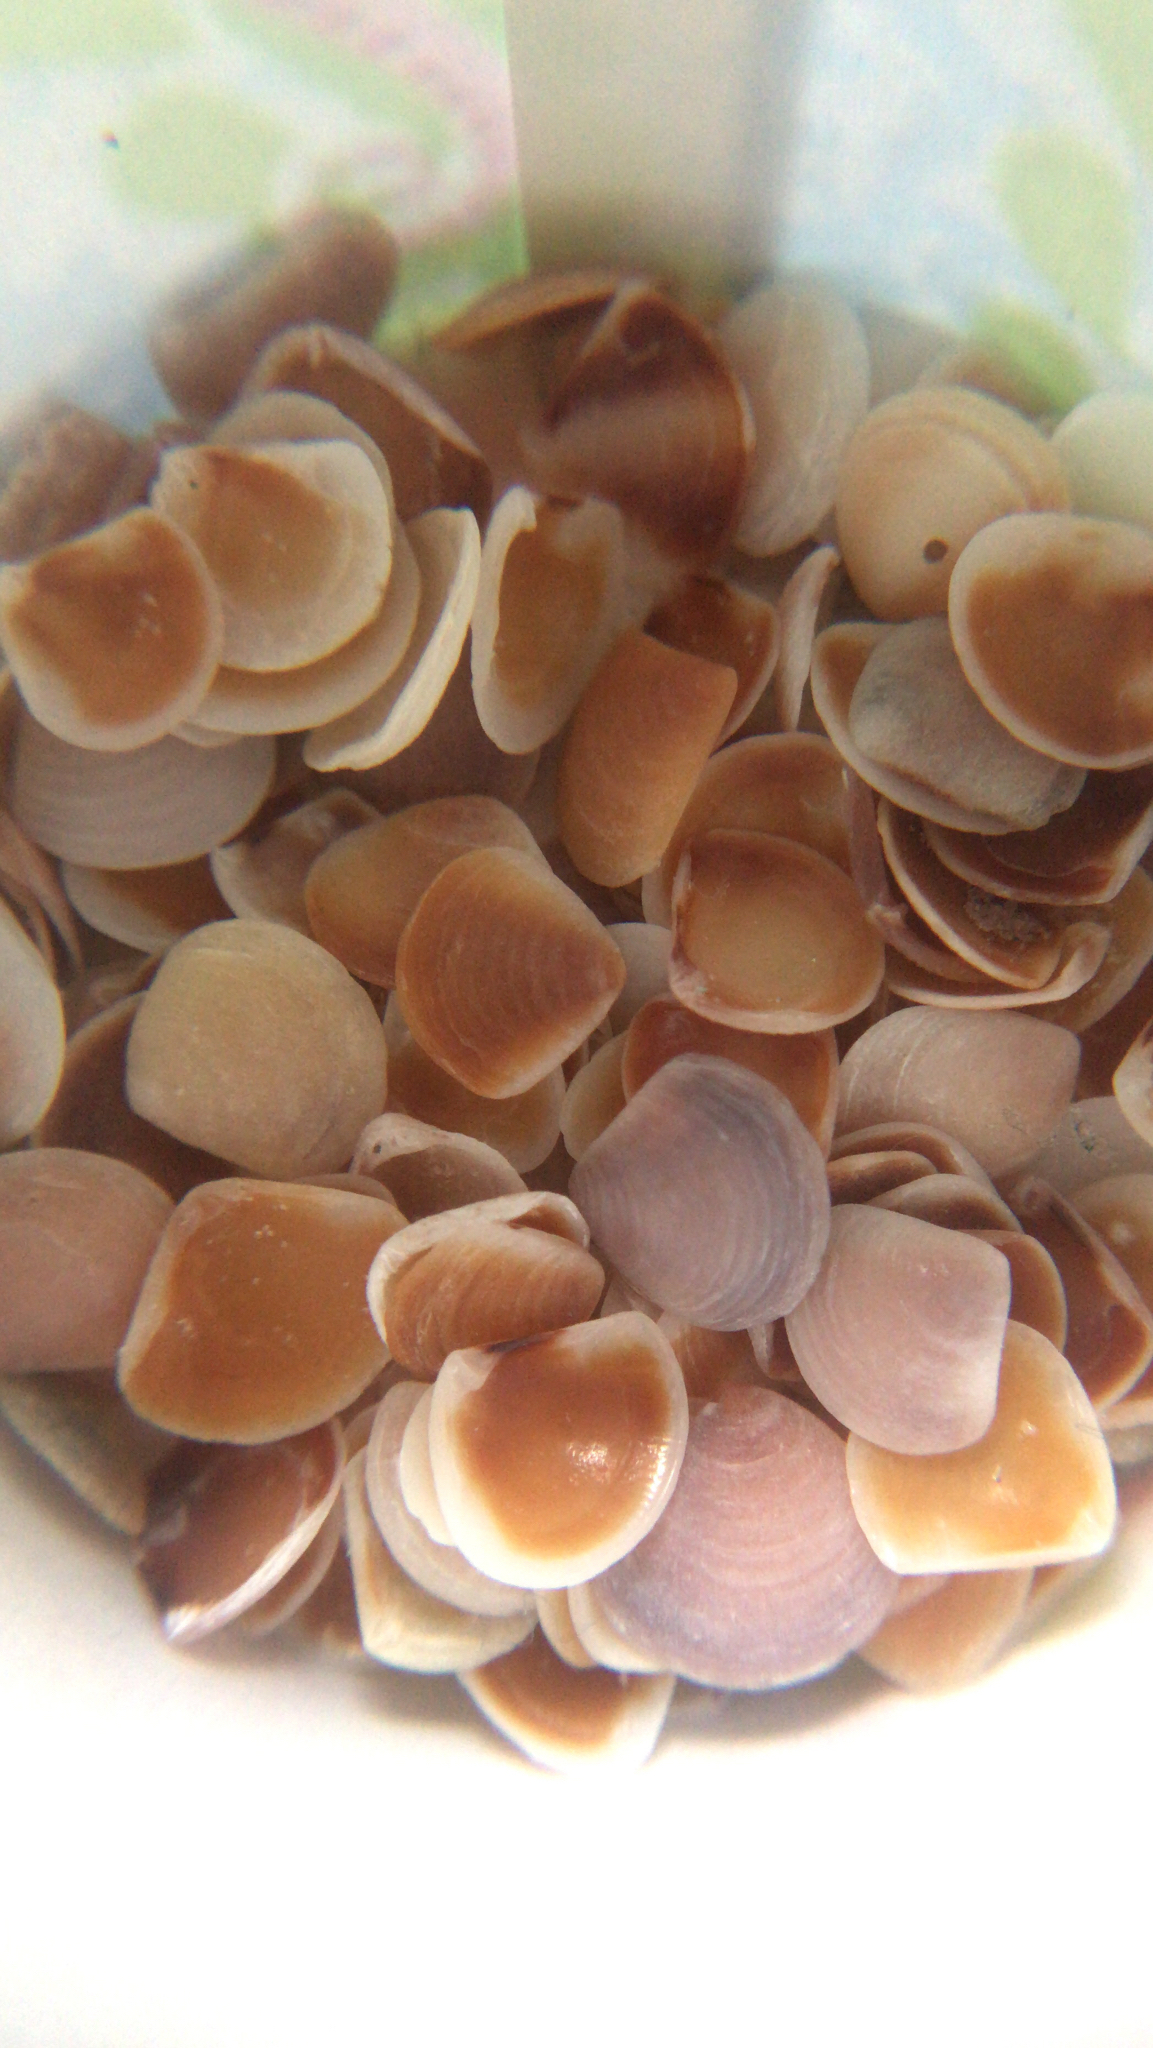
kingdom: Animalia
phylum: Mollusca
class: Bivalvia
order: Carditida
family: Crassatellidae
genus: Crassinella
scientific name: Crassinella lunulata
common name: Lunate crassinella
